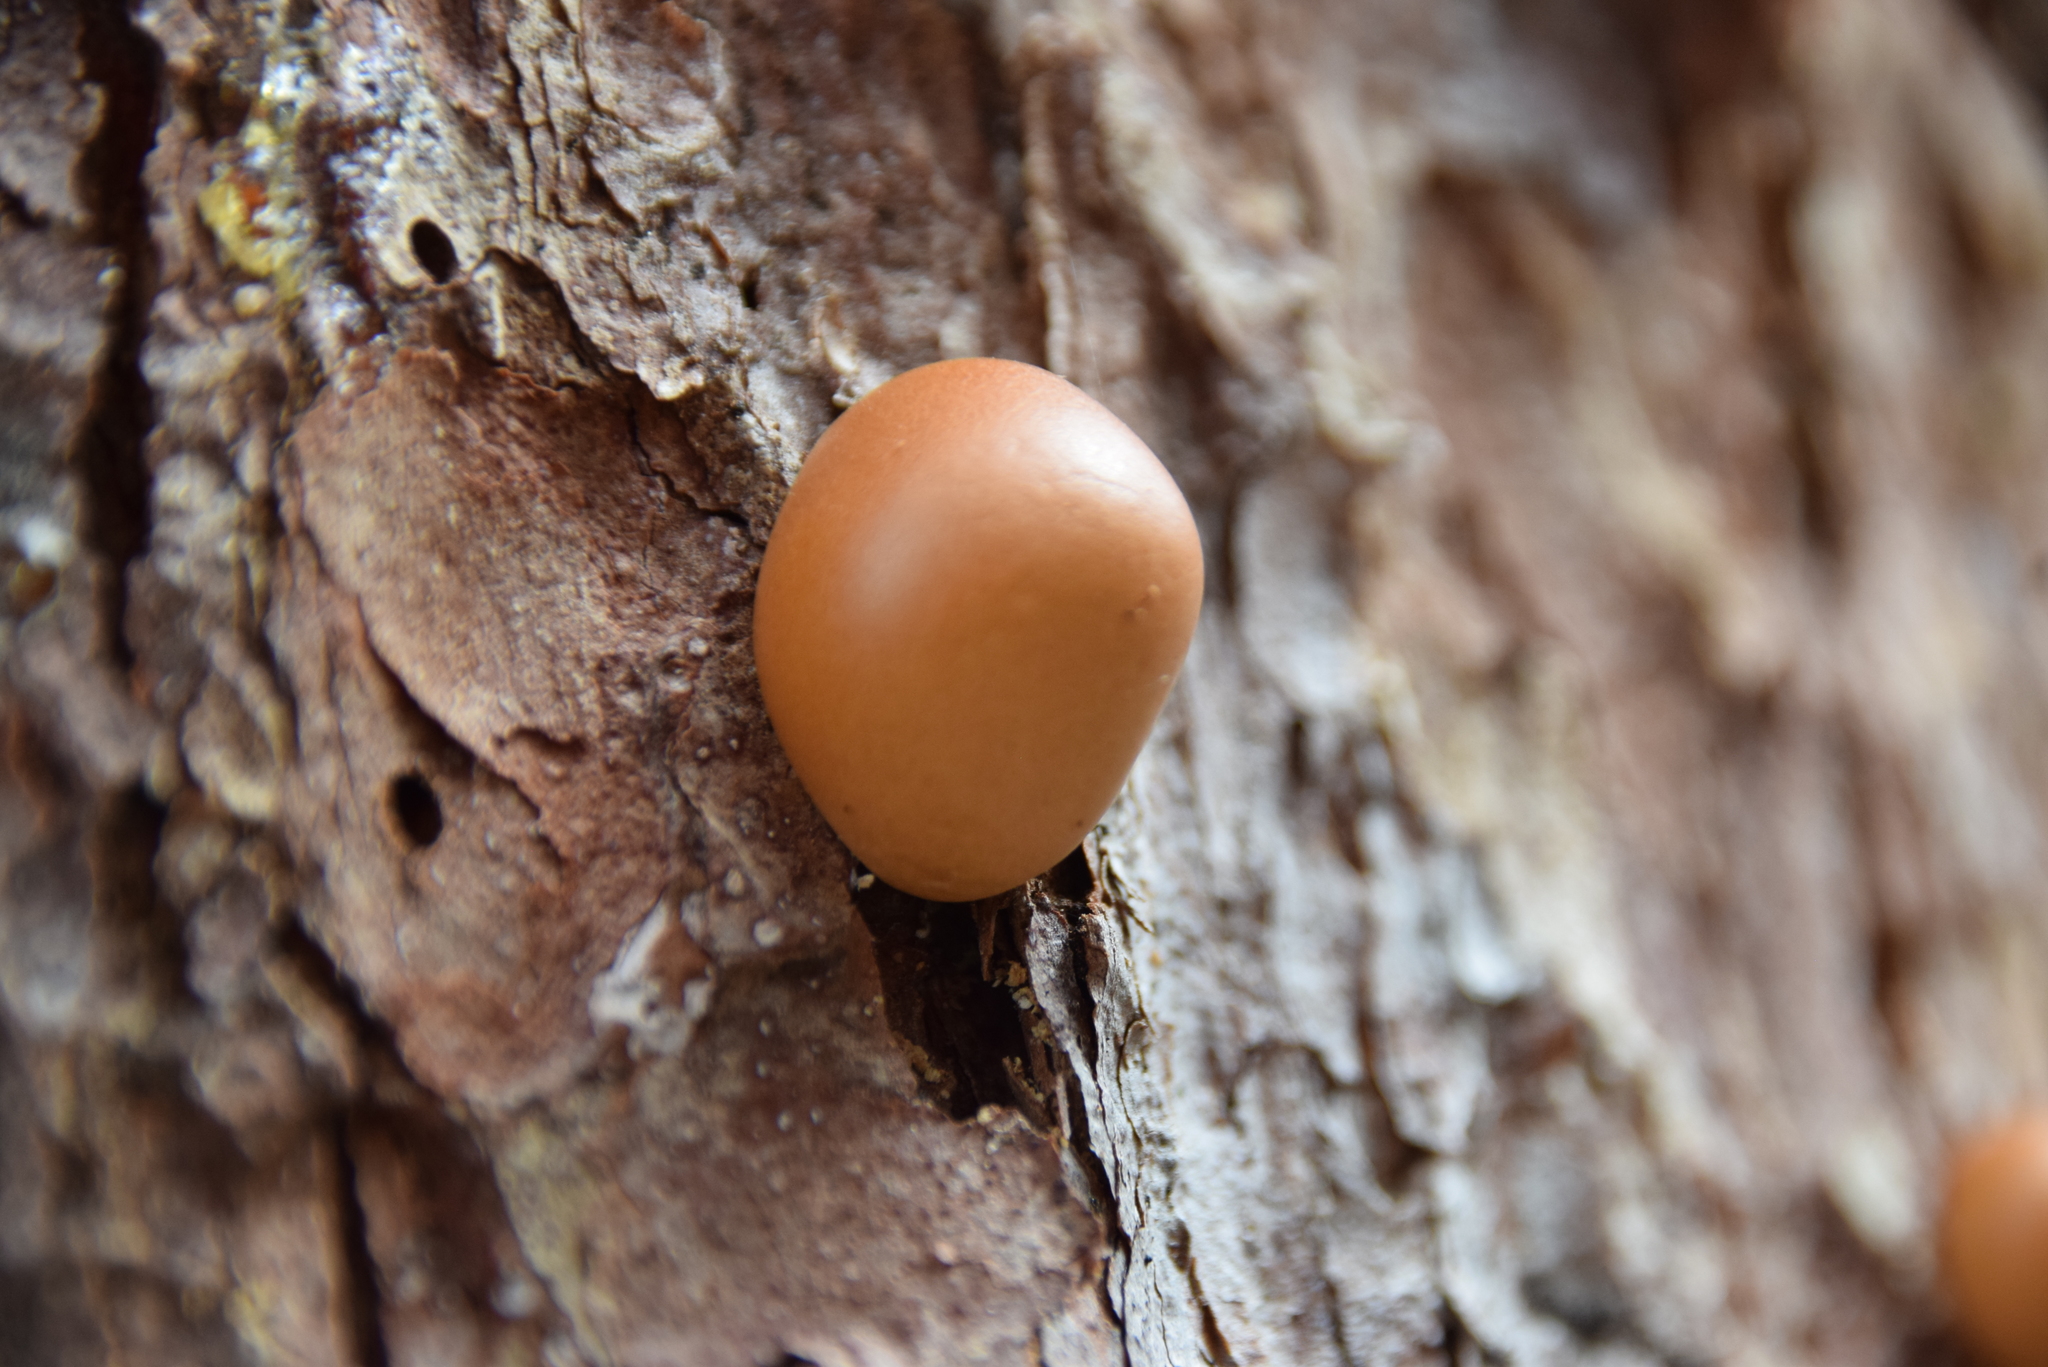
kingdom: Fungi
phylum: Basidiomycota
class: Agaricomycetes
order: Polyporales
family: Polyporaceae
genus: Cryptoporus
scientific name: Cryptoporus volvatus
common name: Veiled polypore
